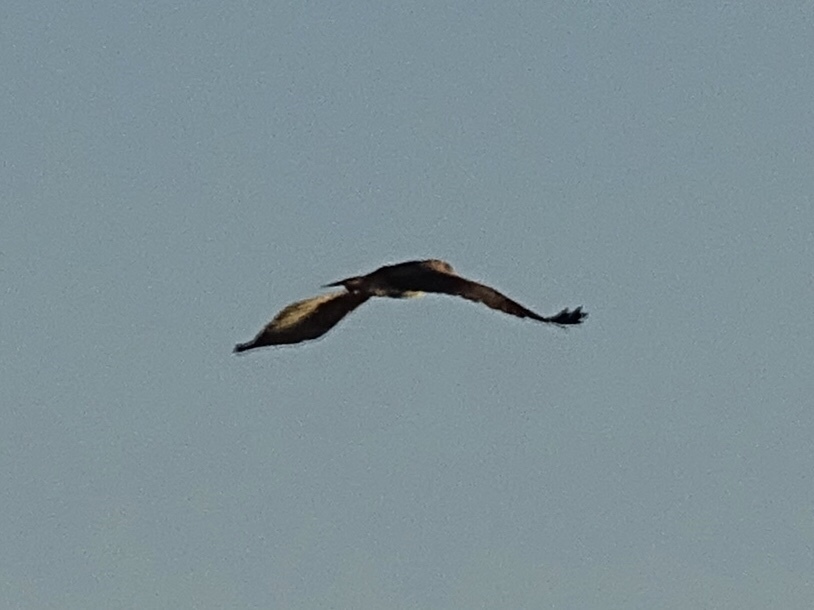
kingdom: Animalia
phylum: Chordata
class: Aves
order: Accipitriformes
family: Accipitridae
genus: Buteo
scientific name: Buteo jamaicensis
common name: Red-tailed hawk
